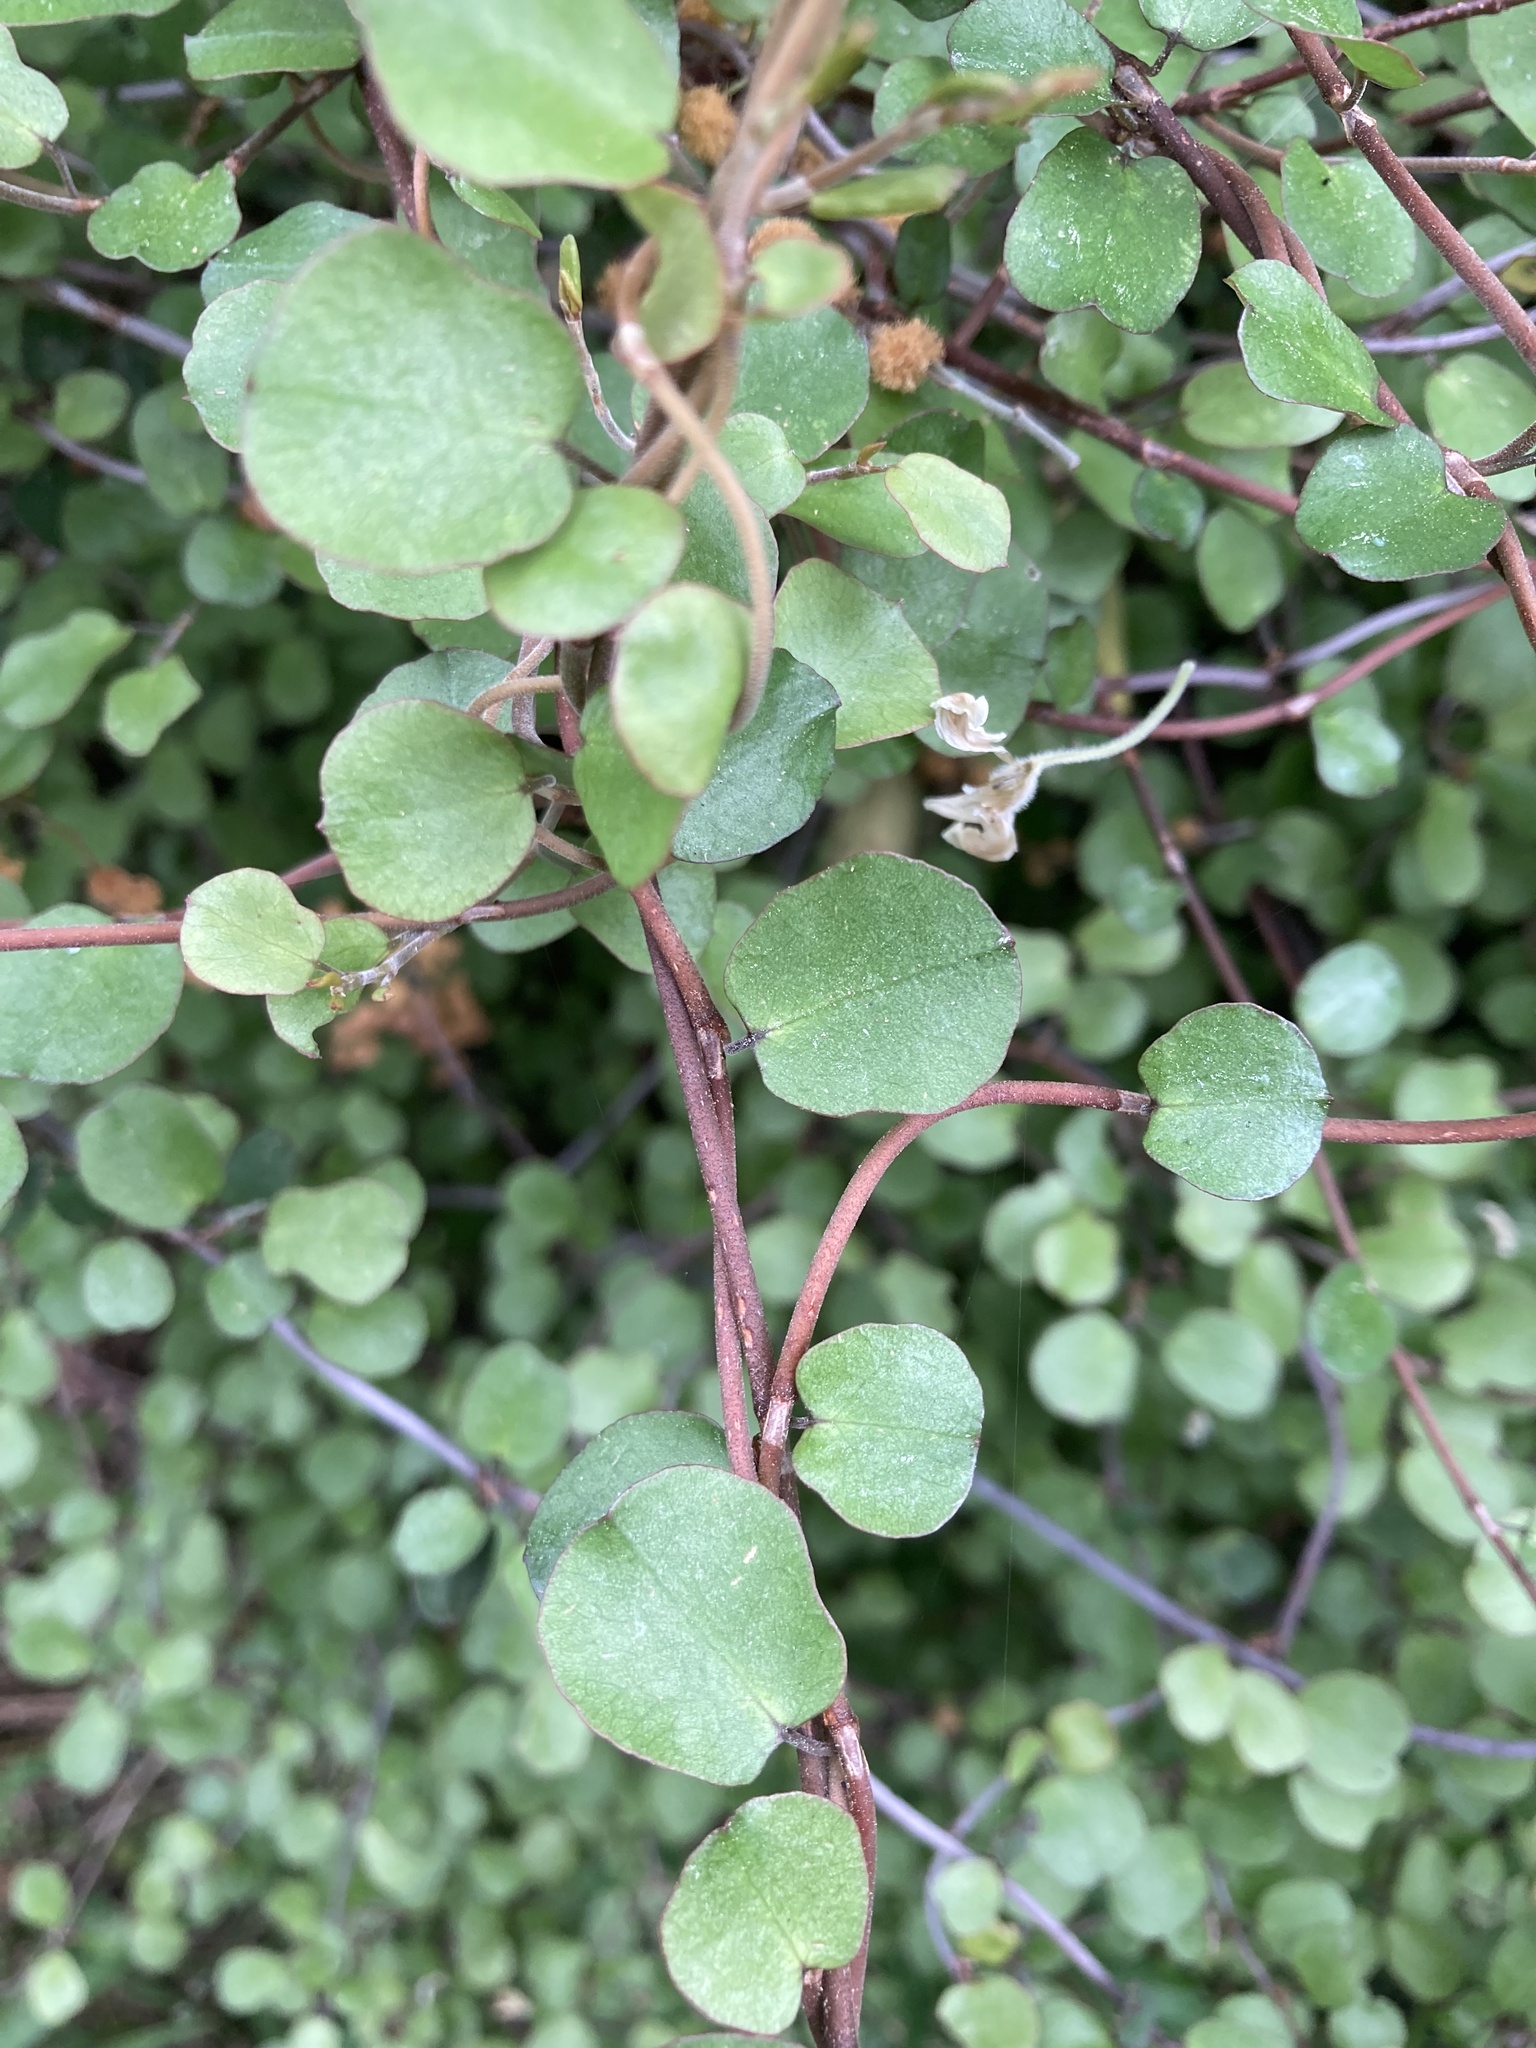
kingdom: Plantae
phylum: Tracheophyta
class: Magnoliopsida
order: Caryophyllales
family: Polygonaceae
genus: Muehlenbeckia
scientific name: Muehlenbeckia complexa
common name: Wireplant
